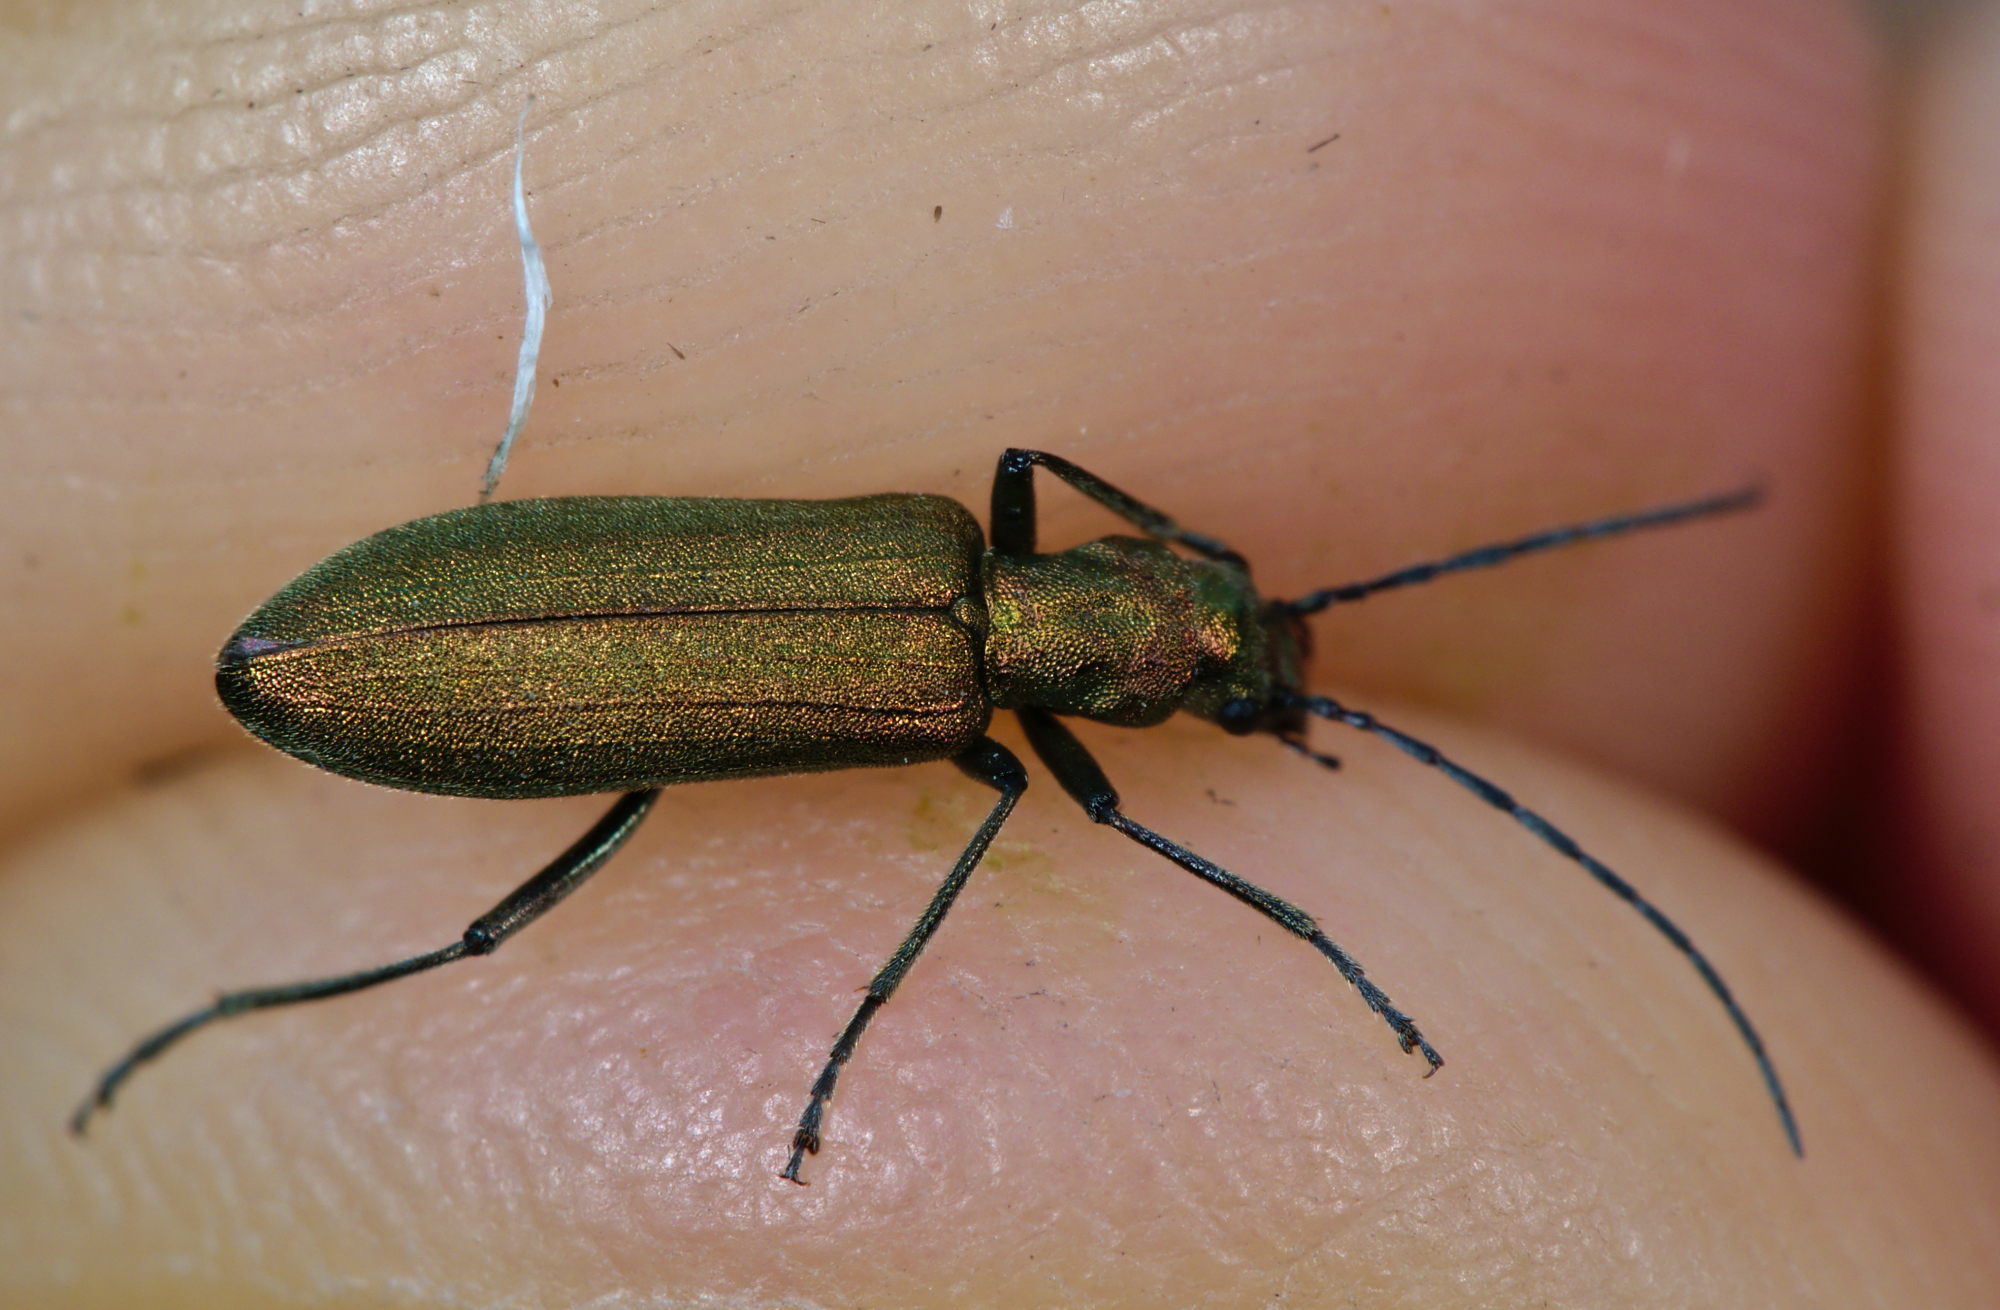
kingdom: Animalia
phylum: Arthropoda
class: Insecta
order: Coleoptera
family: Oedemeridae
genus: Chrysanthia
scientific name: Chrysanthia viridissima
